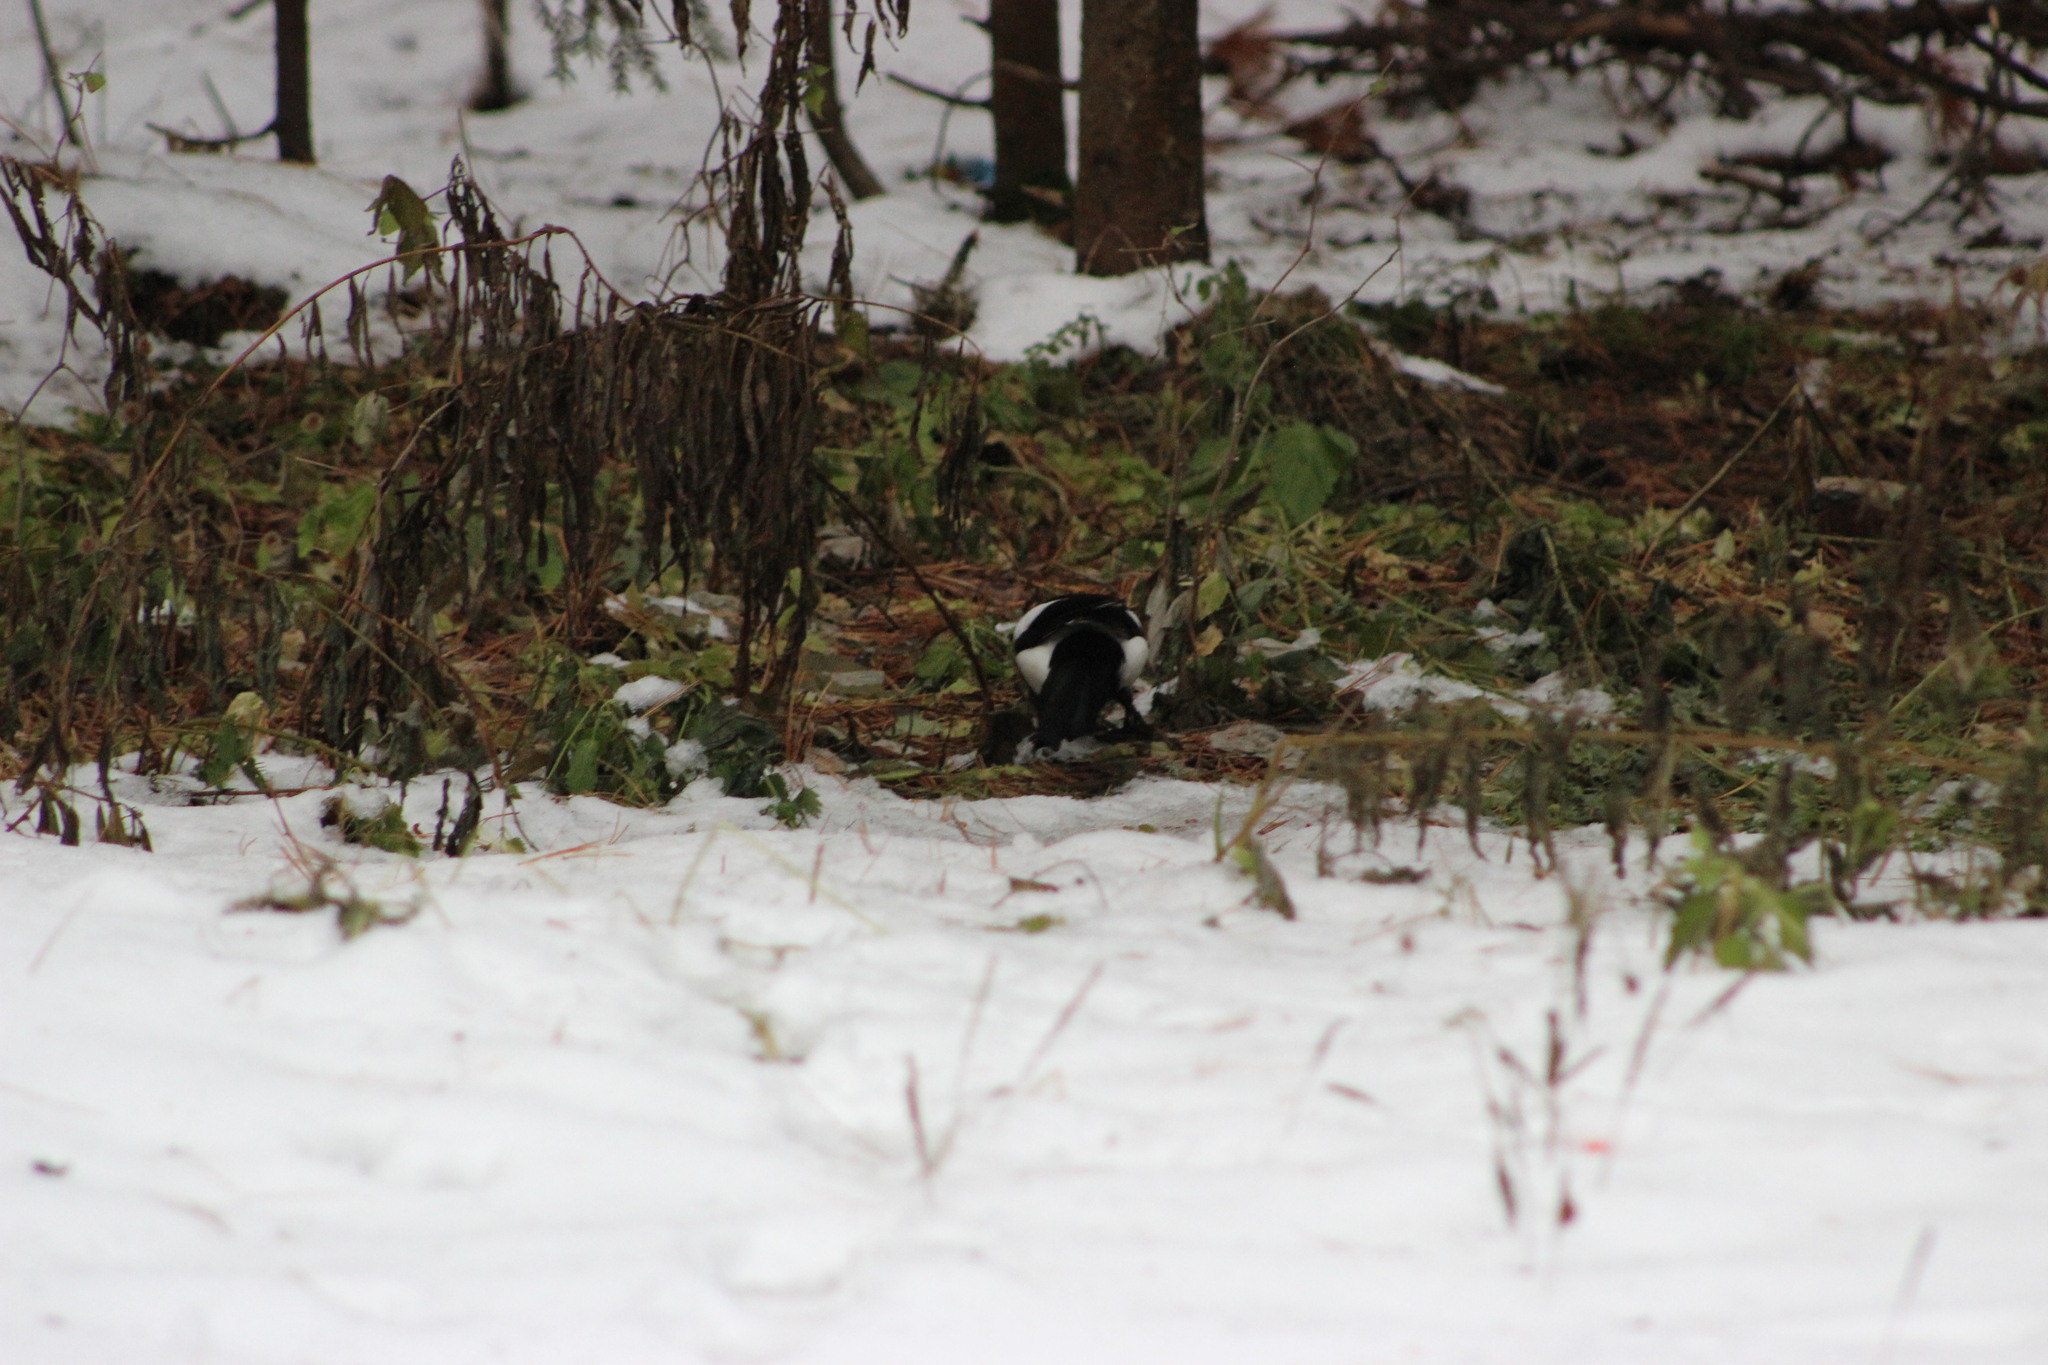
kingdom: Animalia
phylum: Chordata
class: Aves
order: Passeriformes
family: Corvidae
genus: Pica
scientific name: Pica pica
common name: Eurasian magpie
